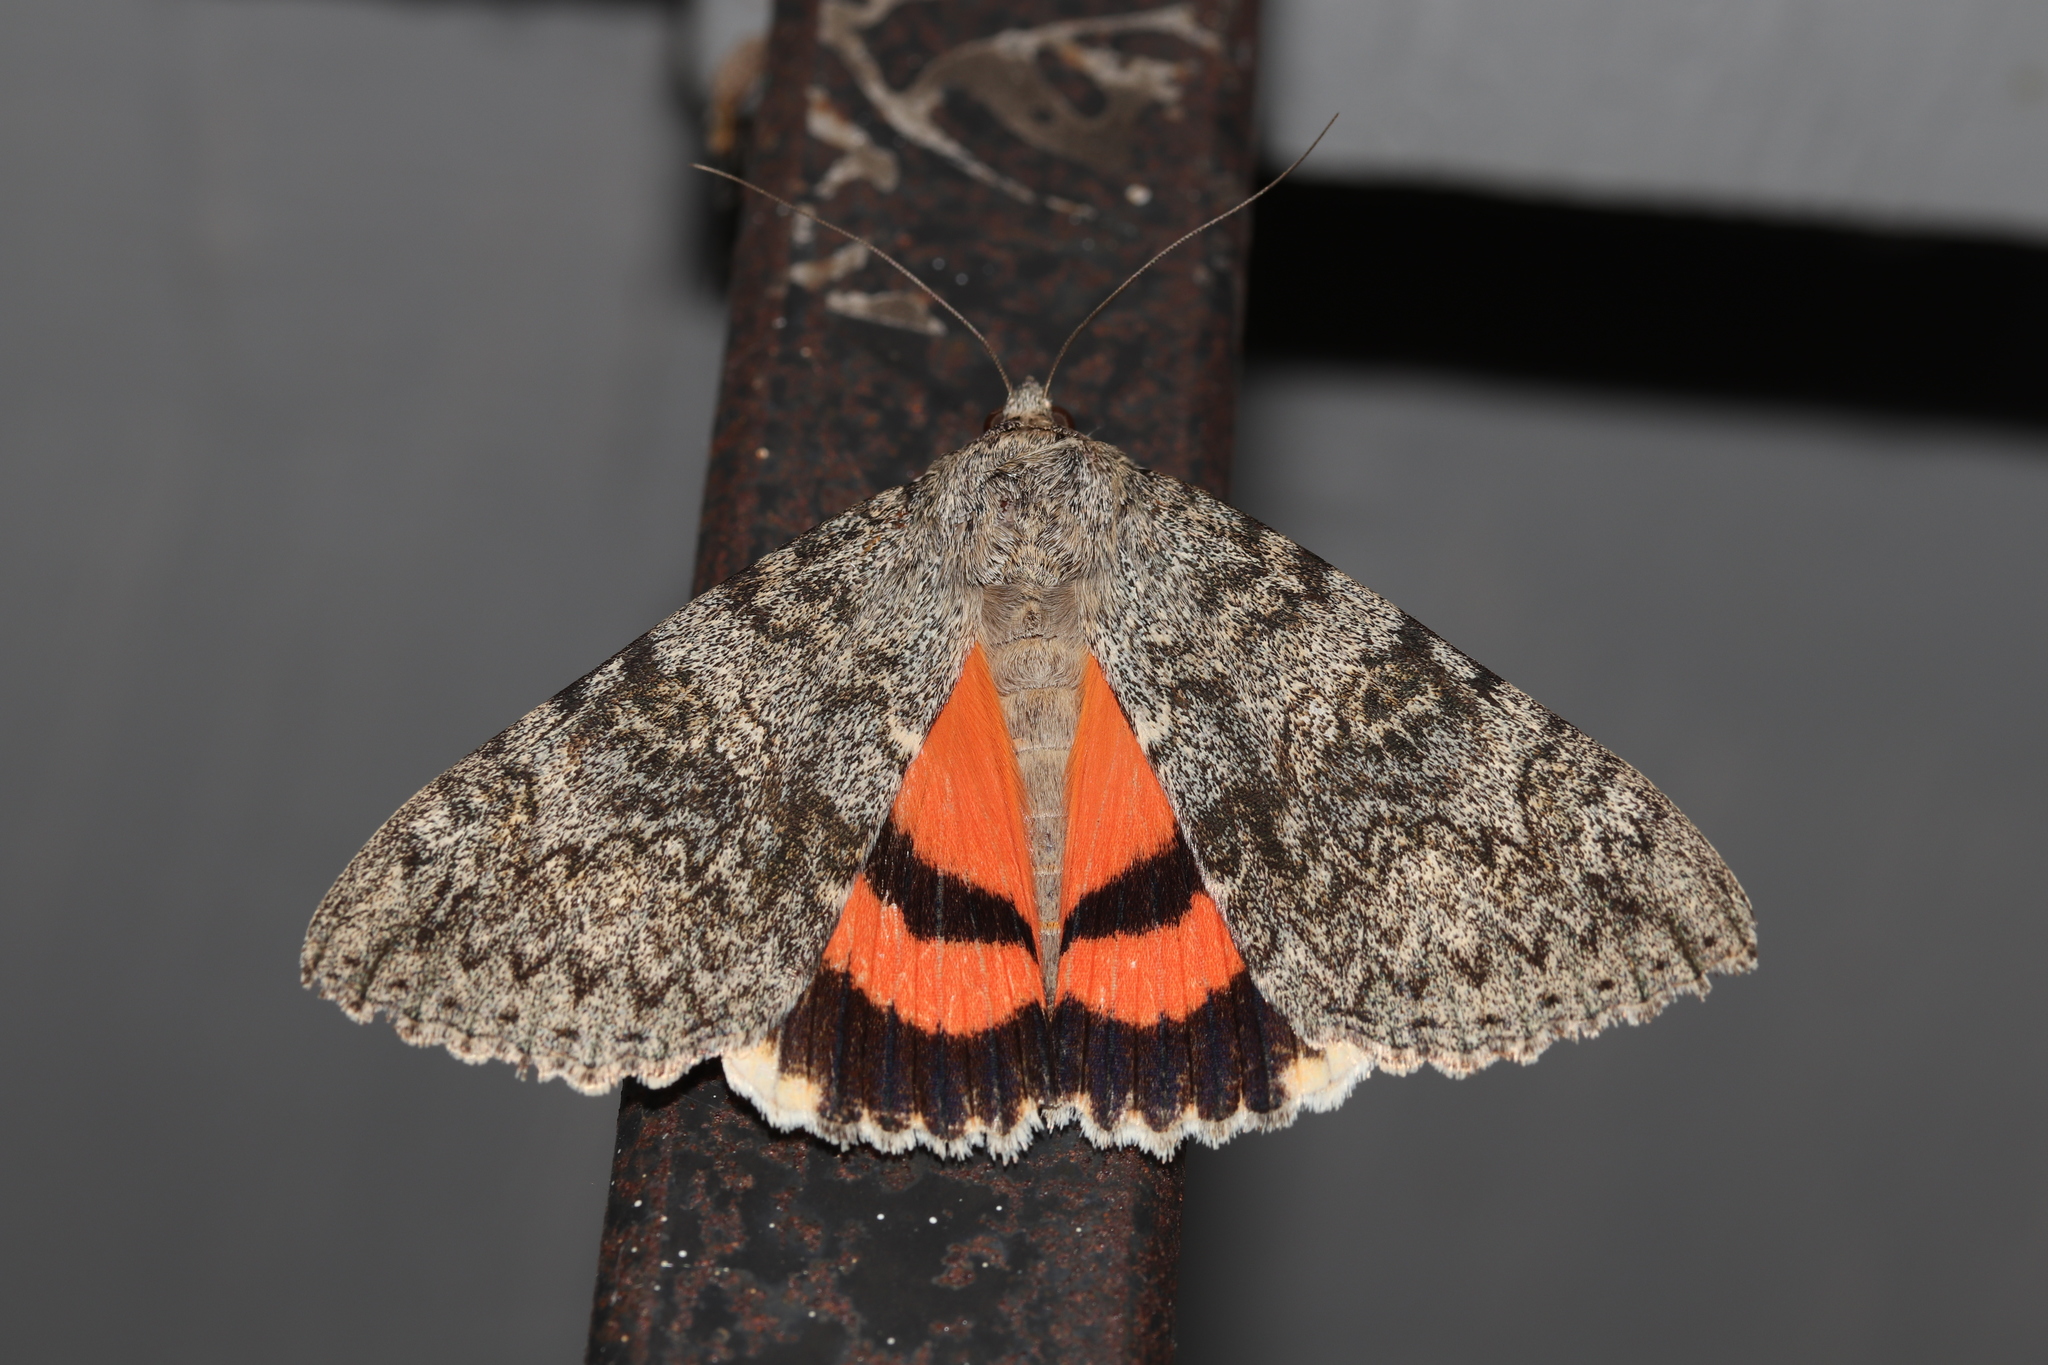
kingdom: Animalia
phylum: Arthropoda
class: Insecta
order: Lepidoptera
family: Erebidae
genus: Catocala
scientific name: Catocala junctura
